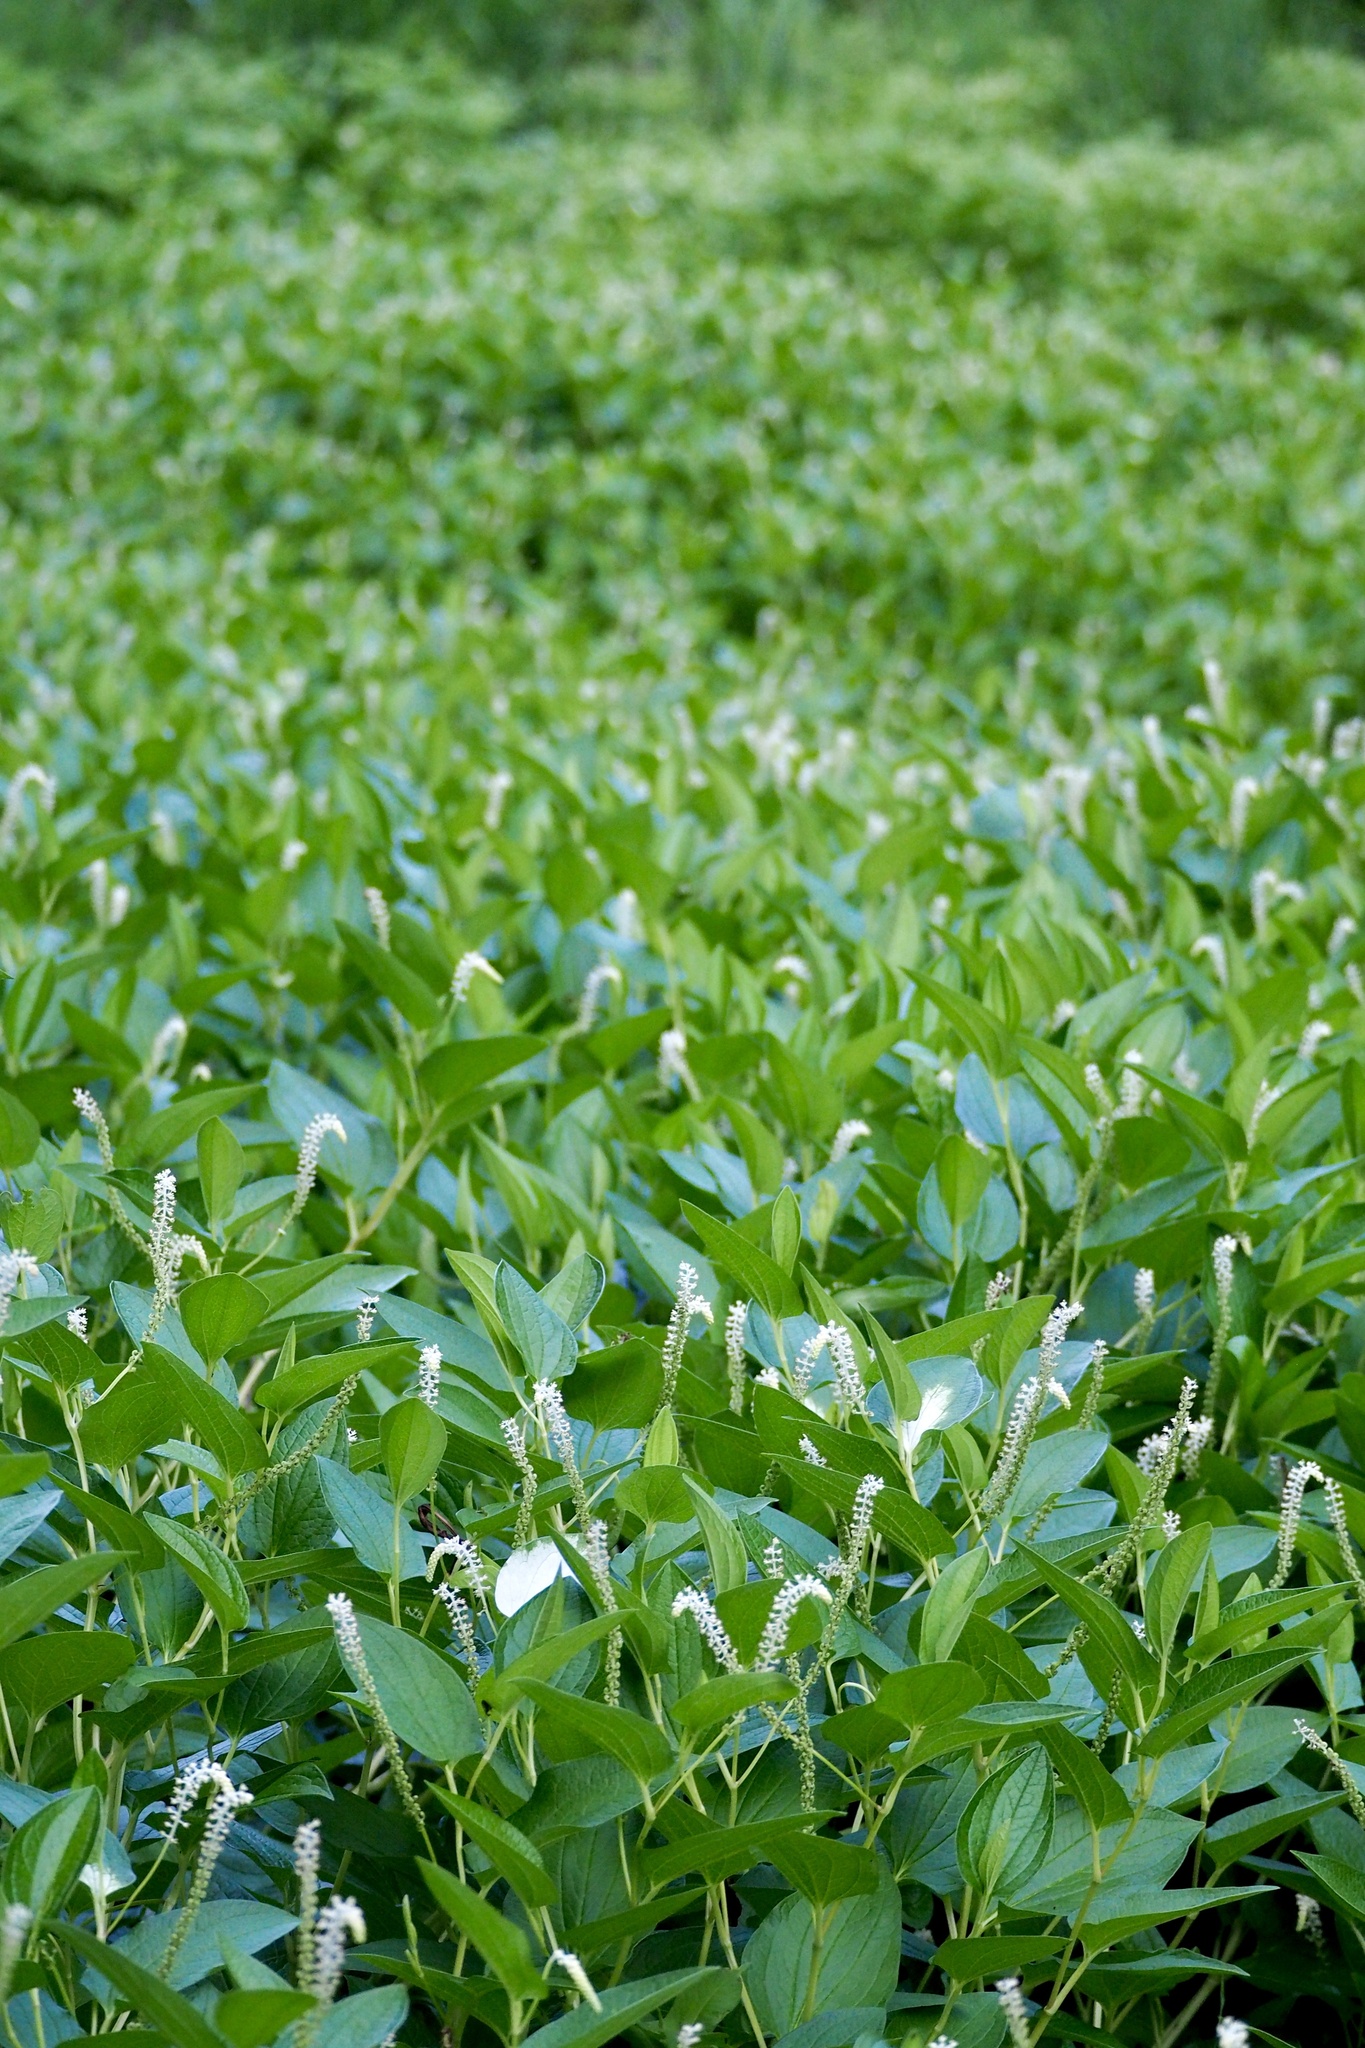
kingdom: Plantae
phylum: Tracheophyta
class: Magnoliopsida
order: Piperales
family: Saururaceae
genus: Saururus
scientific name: Saururus chinensis
